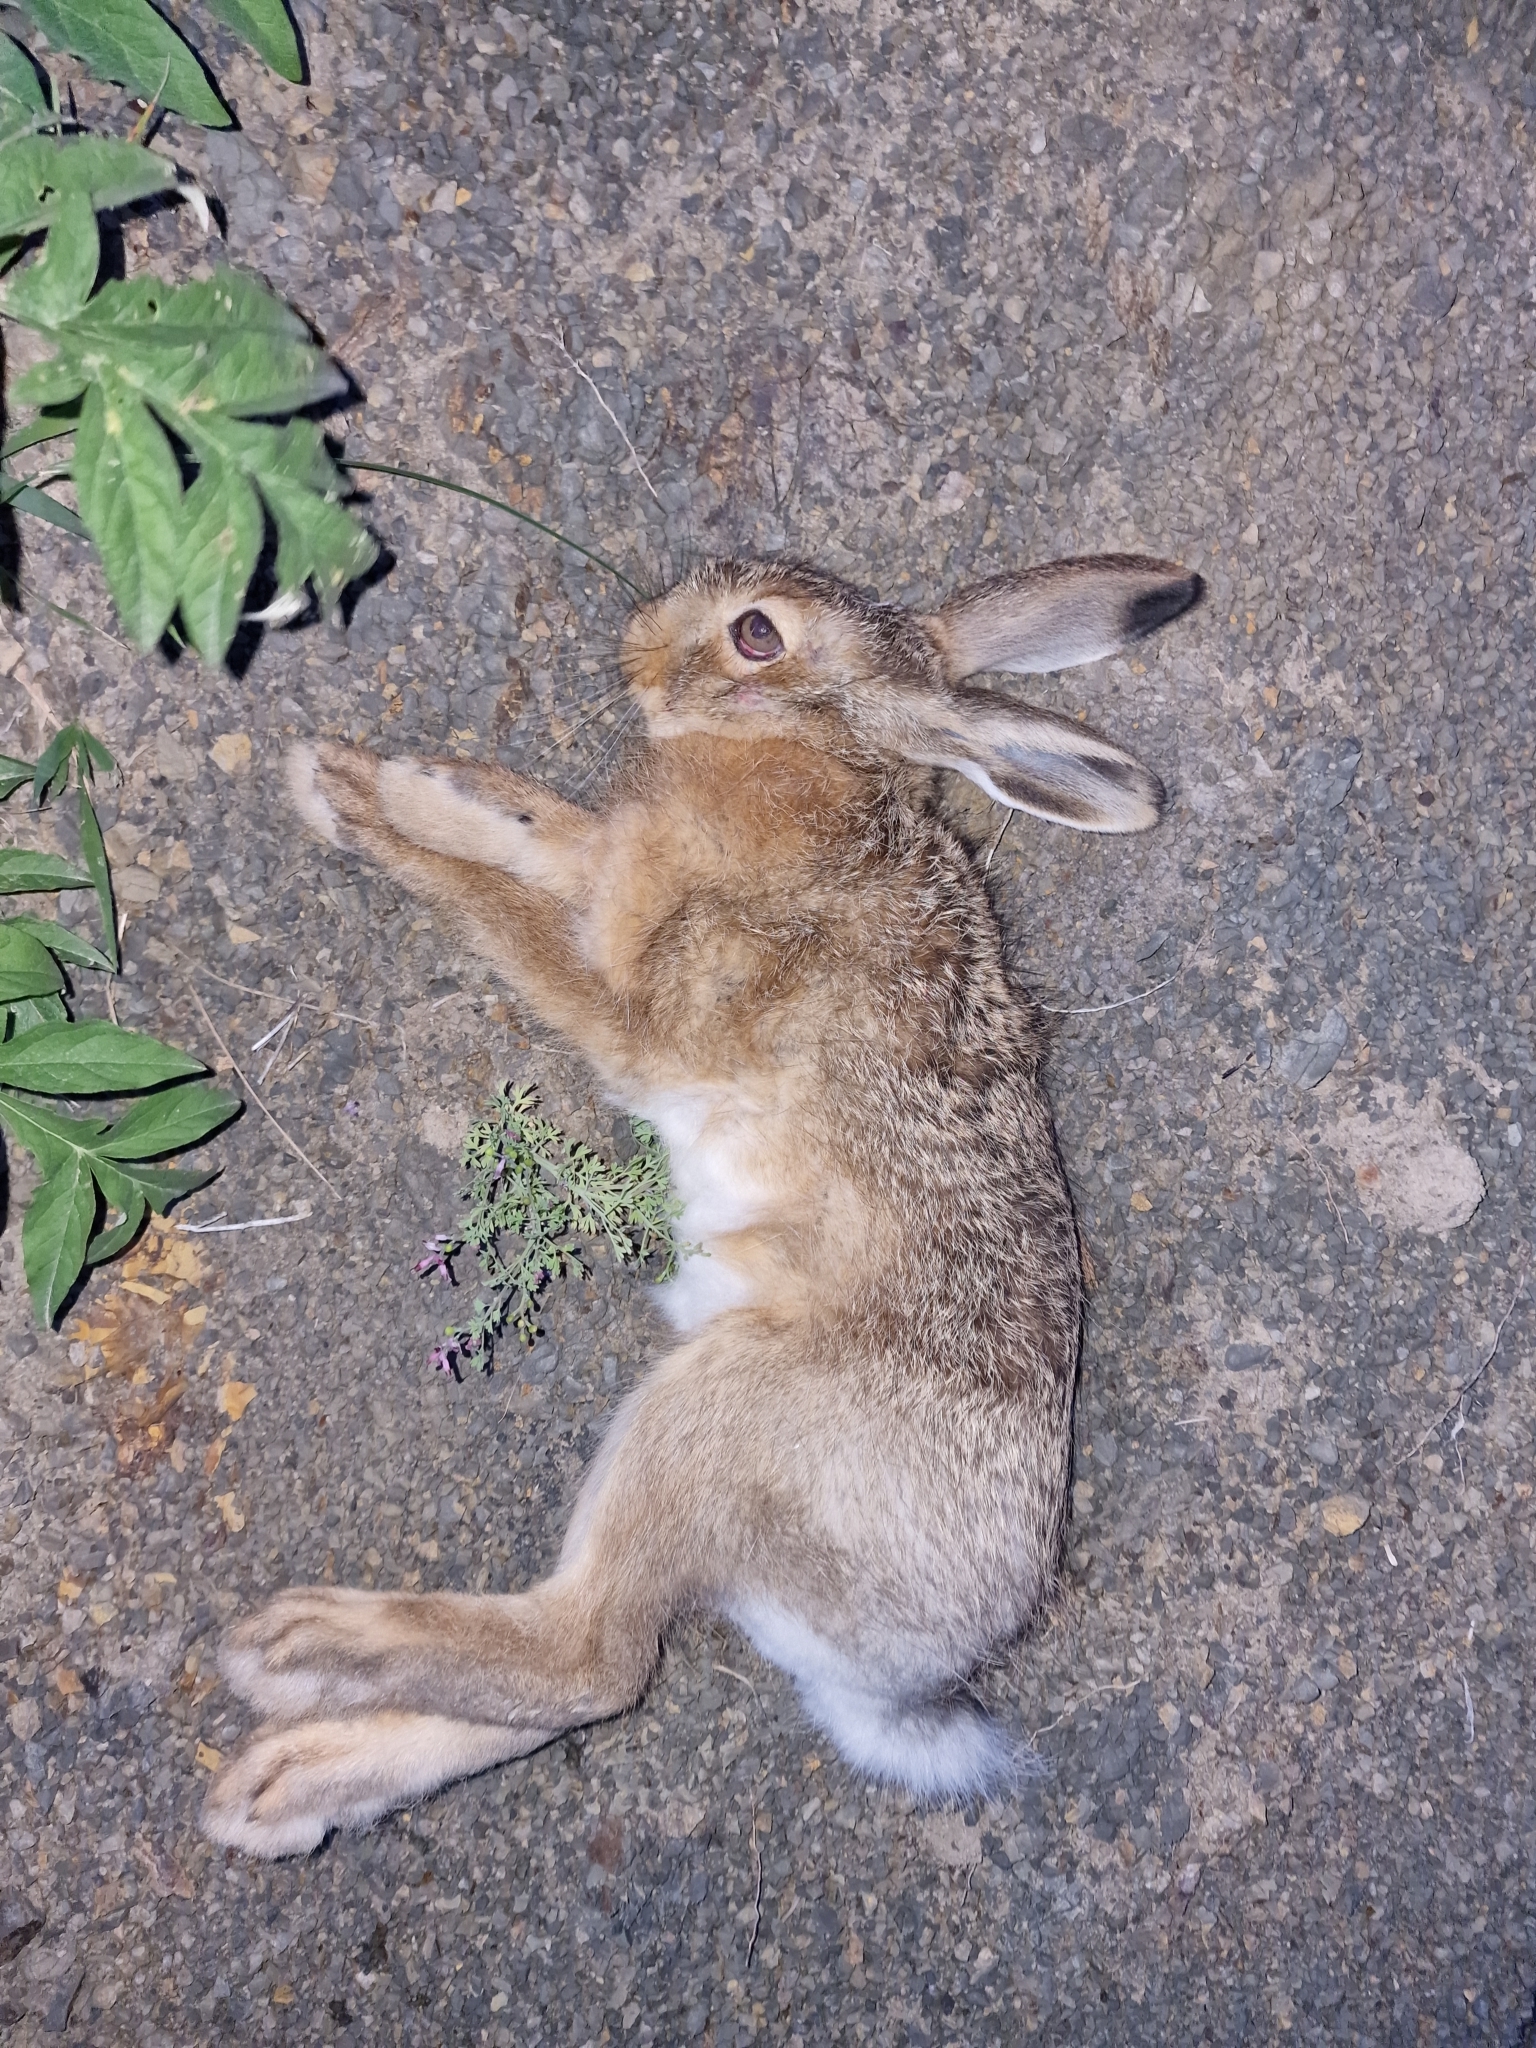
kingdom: Animalia
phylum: Chordata
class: Mammalia
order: Lagomorpha
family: Leporidae
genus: Lepus
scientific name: Lepus europaeus
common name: European hare
